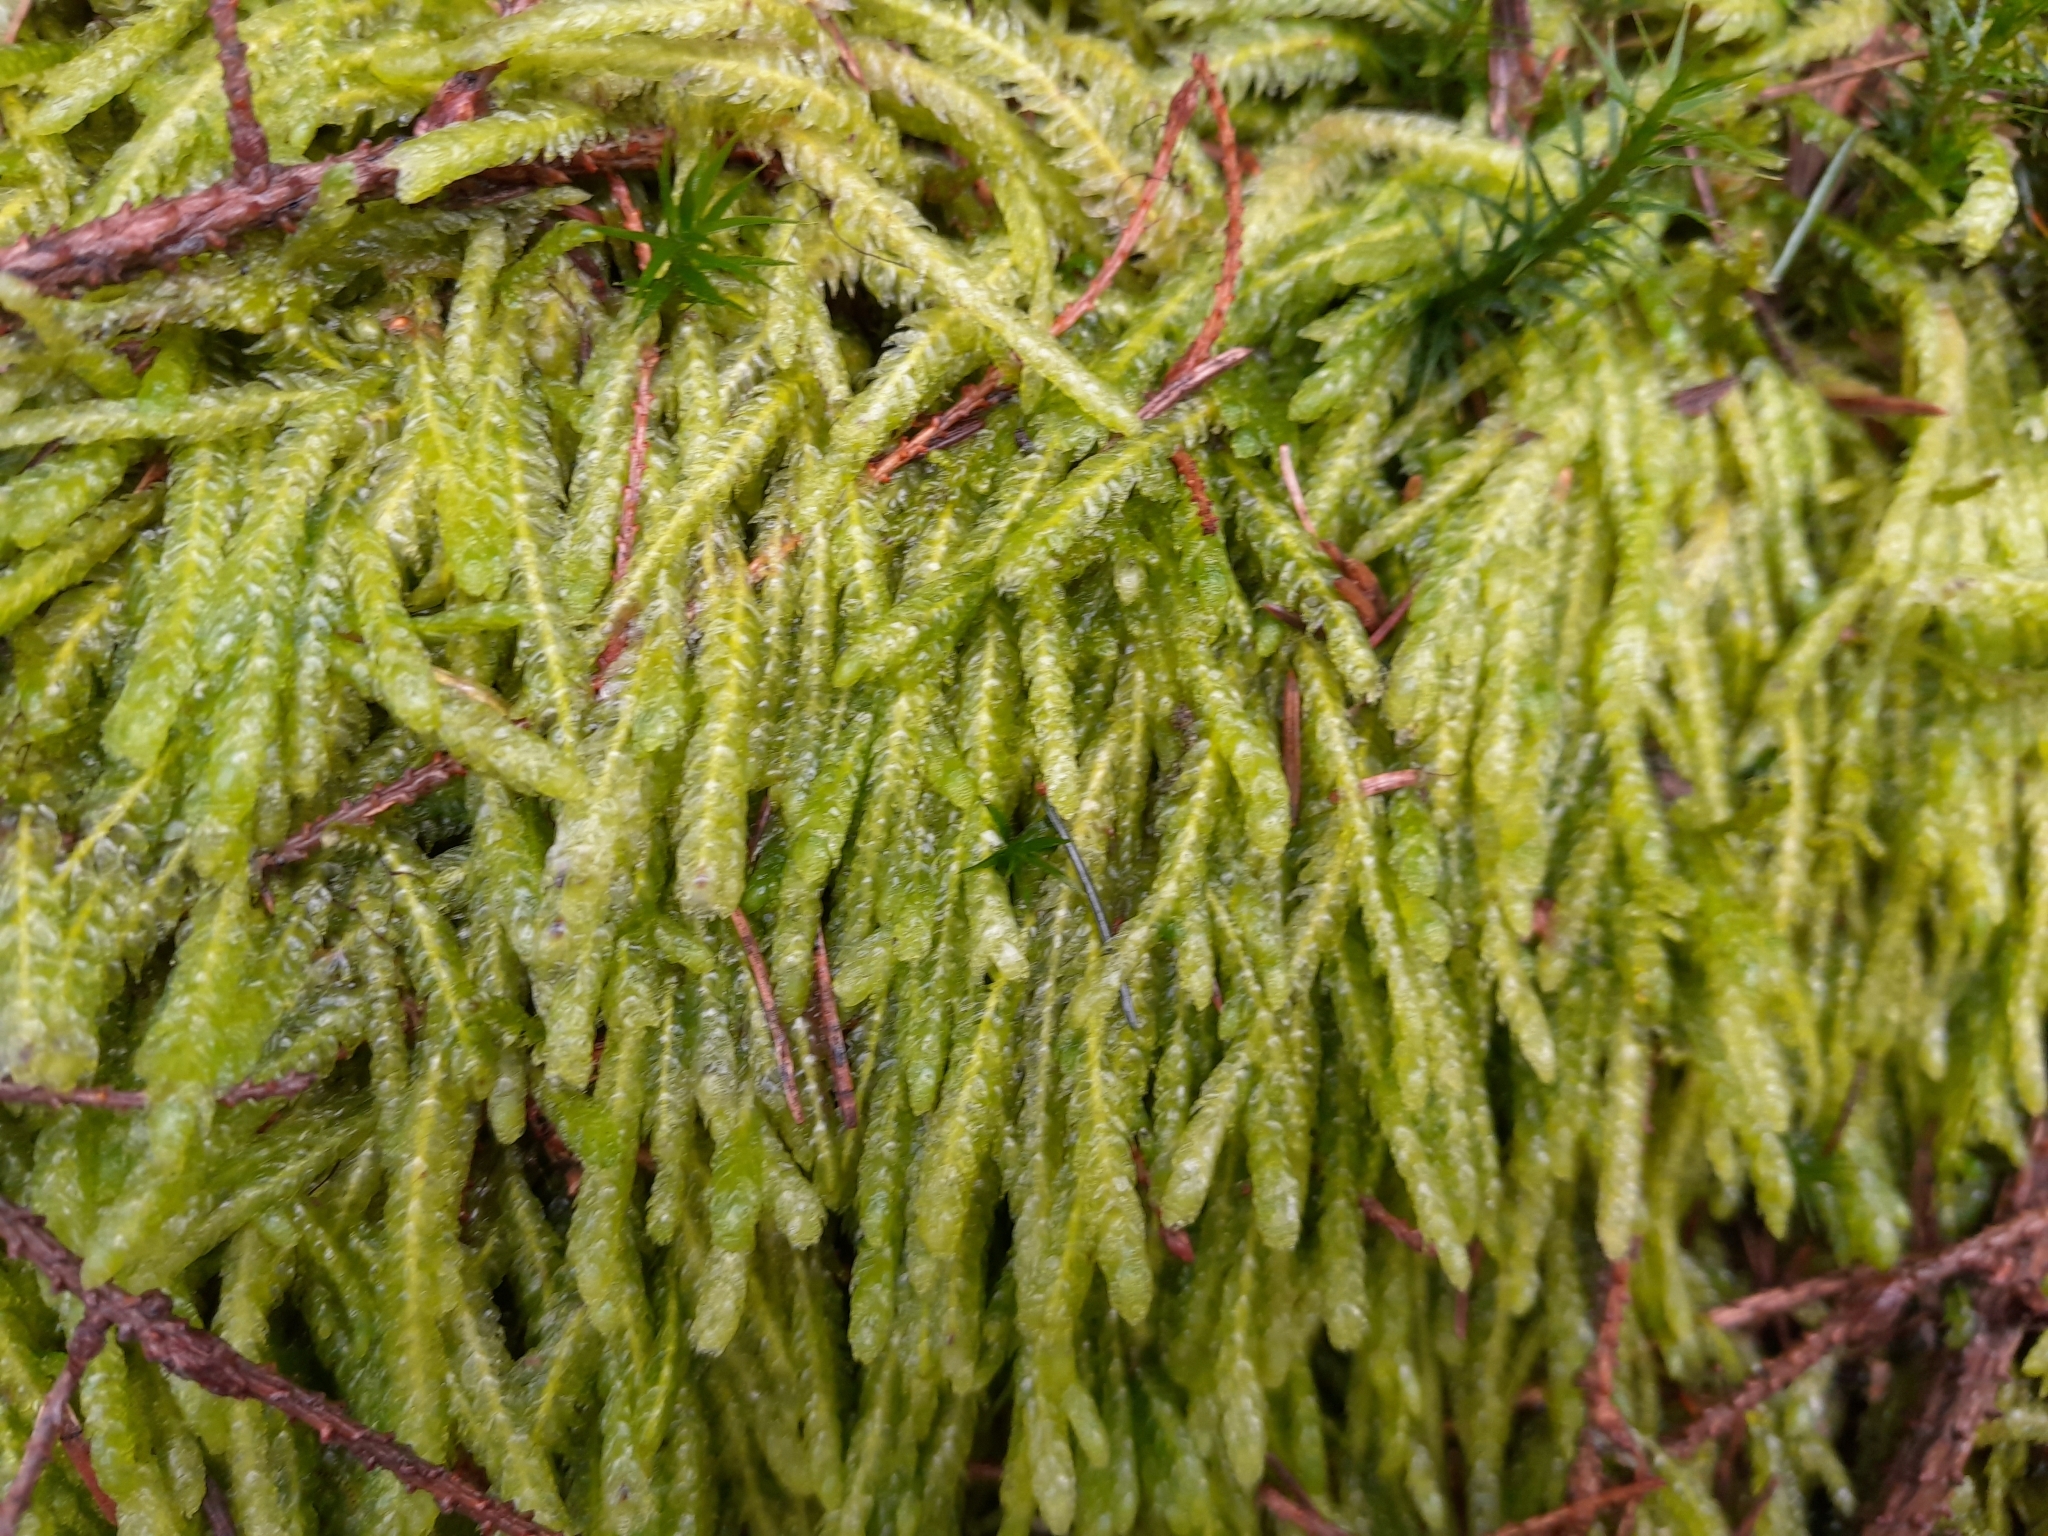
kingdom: Plantae
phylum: Bryophyta
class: Bryopsida
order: Hypnales
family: Plagiotheciaceae
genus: Plagiothecium
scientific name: Plagiothecium undulatum
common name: Waved silk-moss
